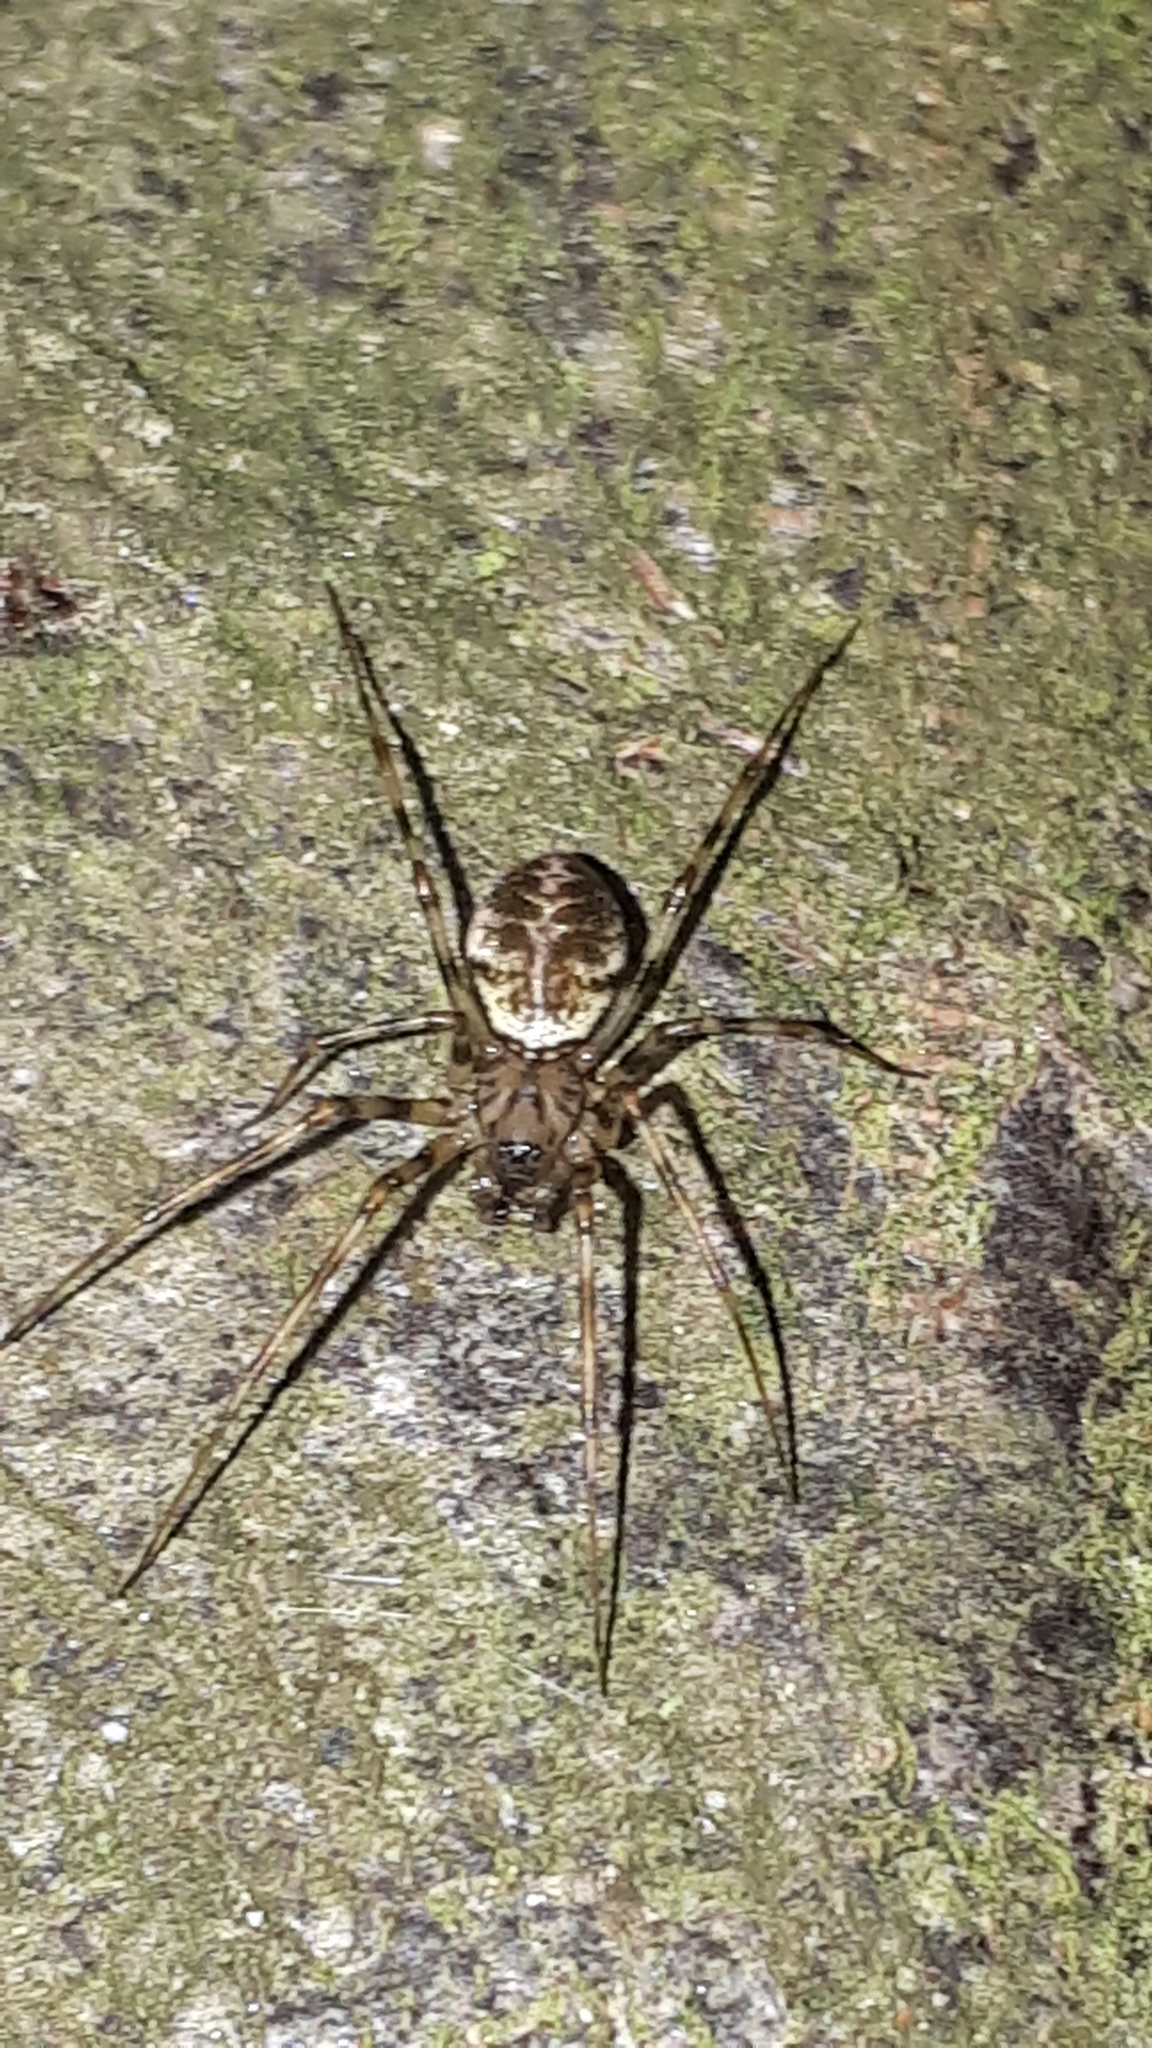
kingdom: Animalia
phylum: Arthropoda
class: Arachnida
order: Araneae
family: Linyphiidae
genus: Drapetisca
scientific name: Drapetisca socialis
